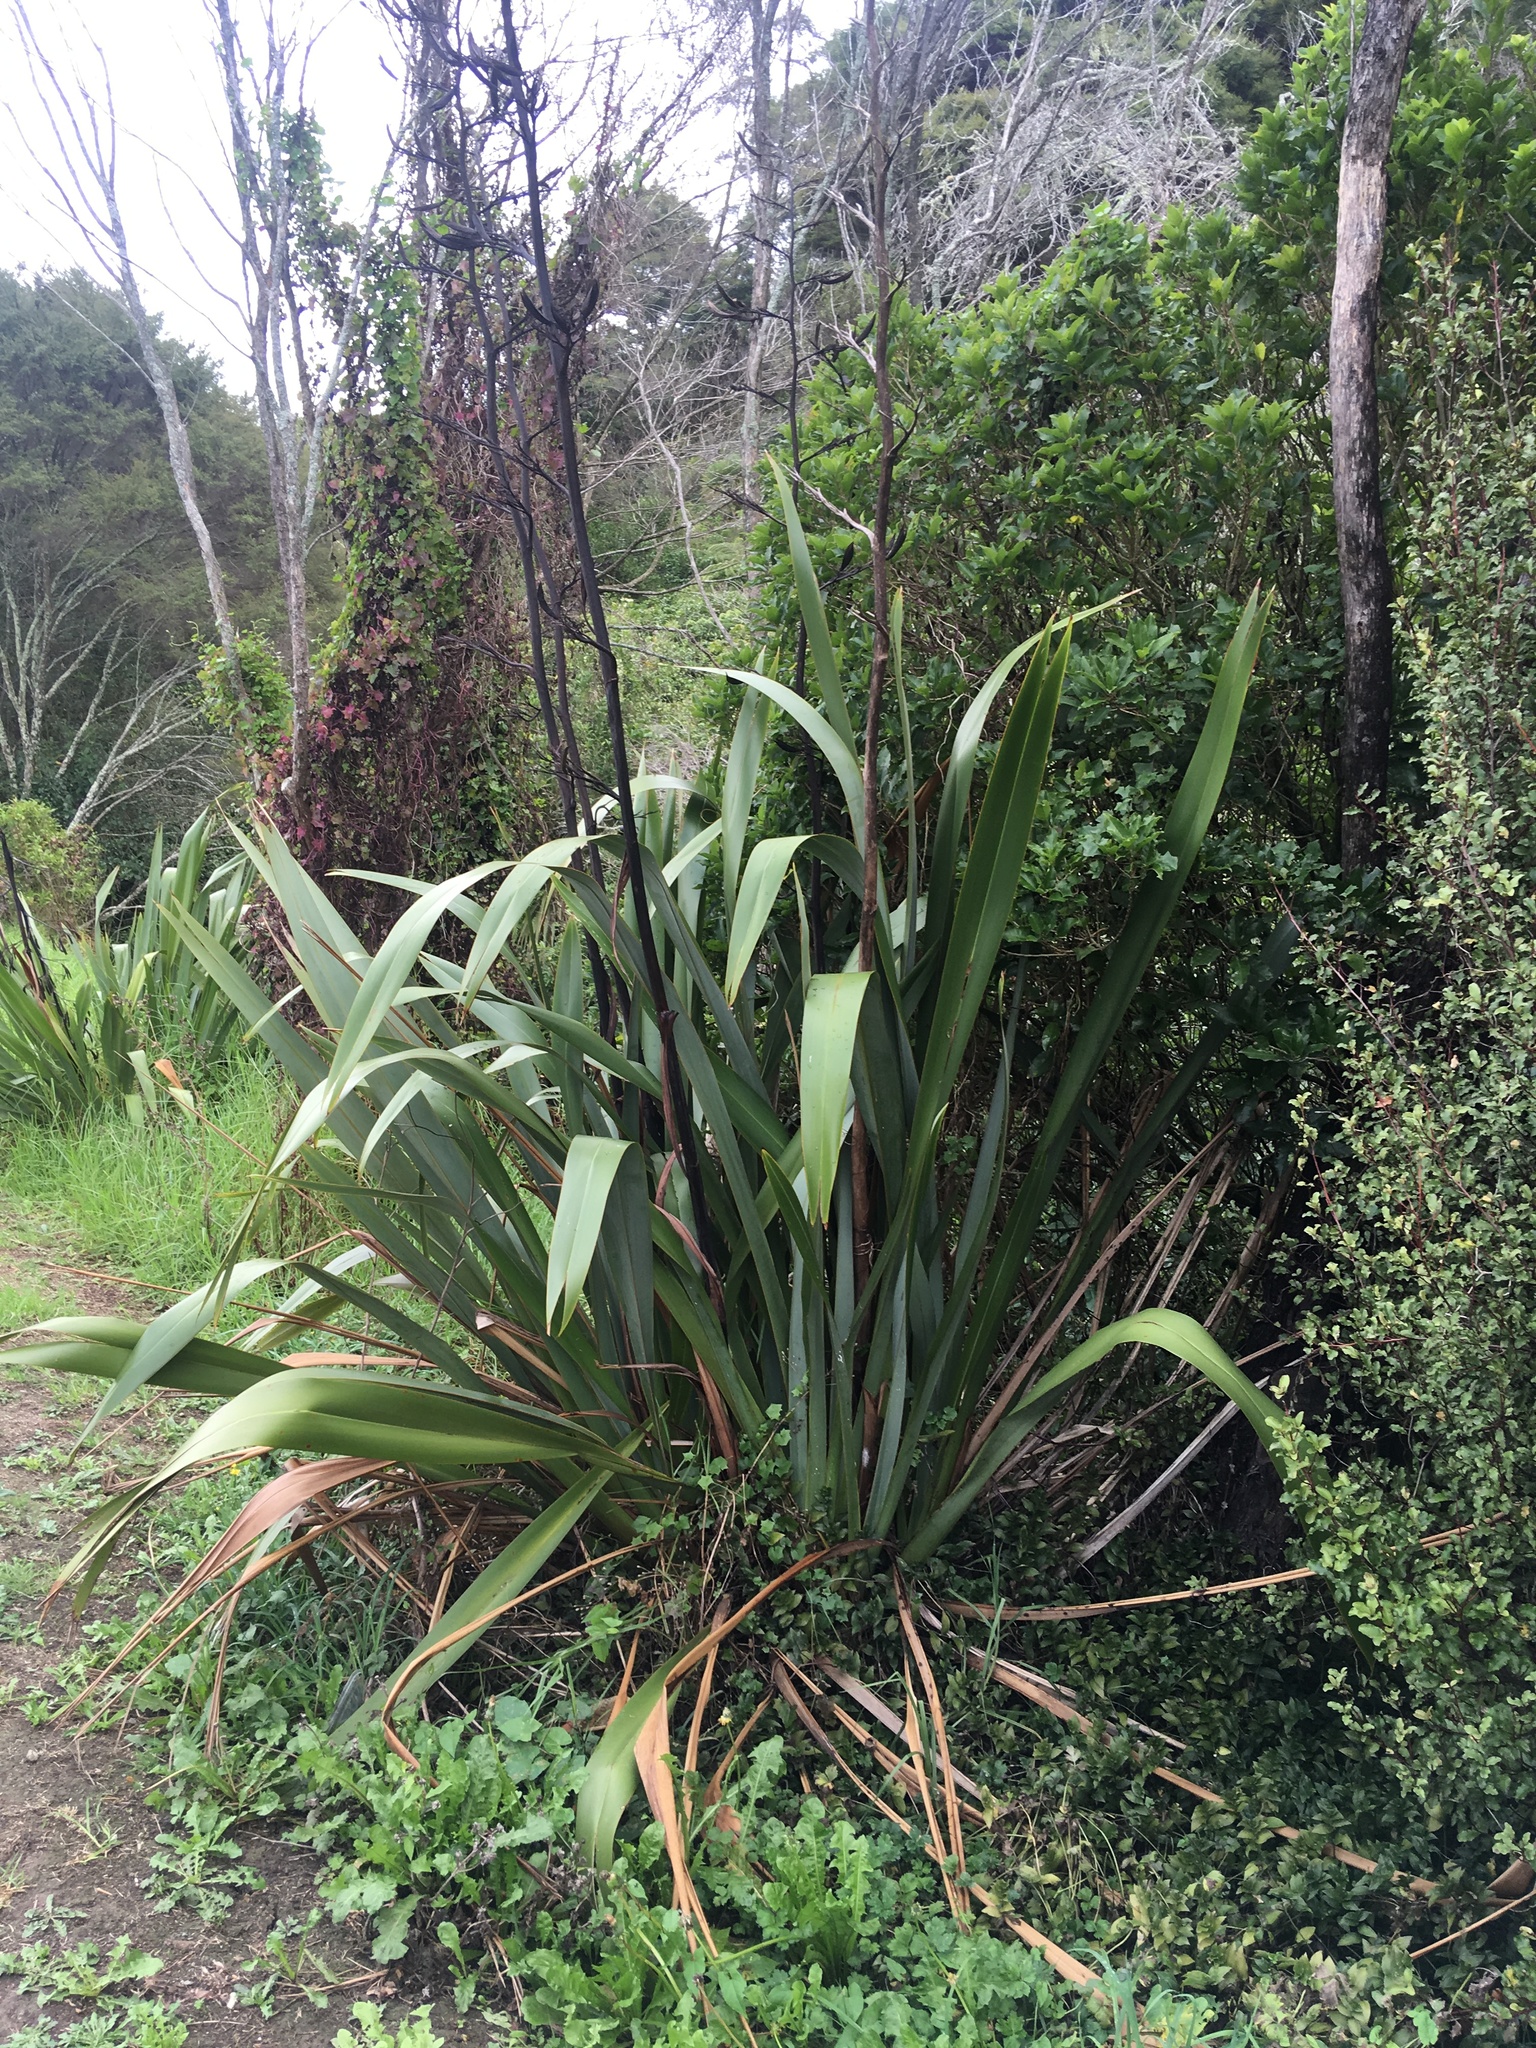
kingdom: Plantae
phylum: Tracheophyta
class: Liliopsida
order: Asparagales
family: Asphodelaceae
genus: Phormium
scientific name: Phormium tenax
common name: New zealand flax
